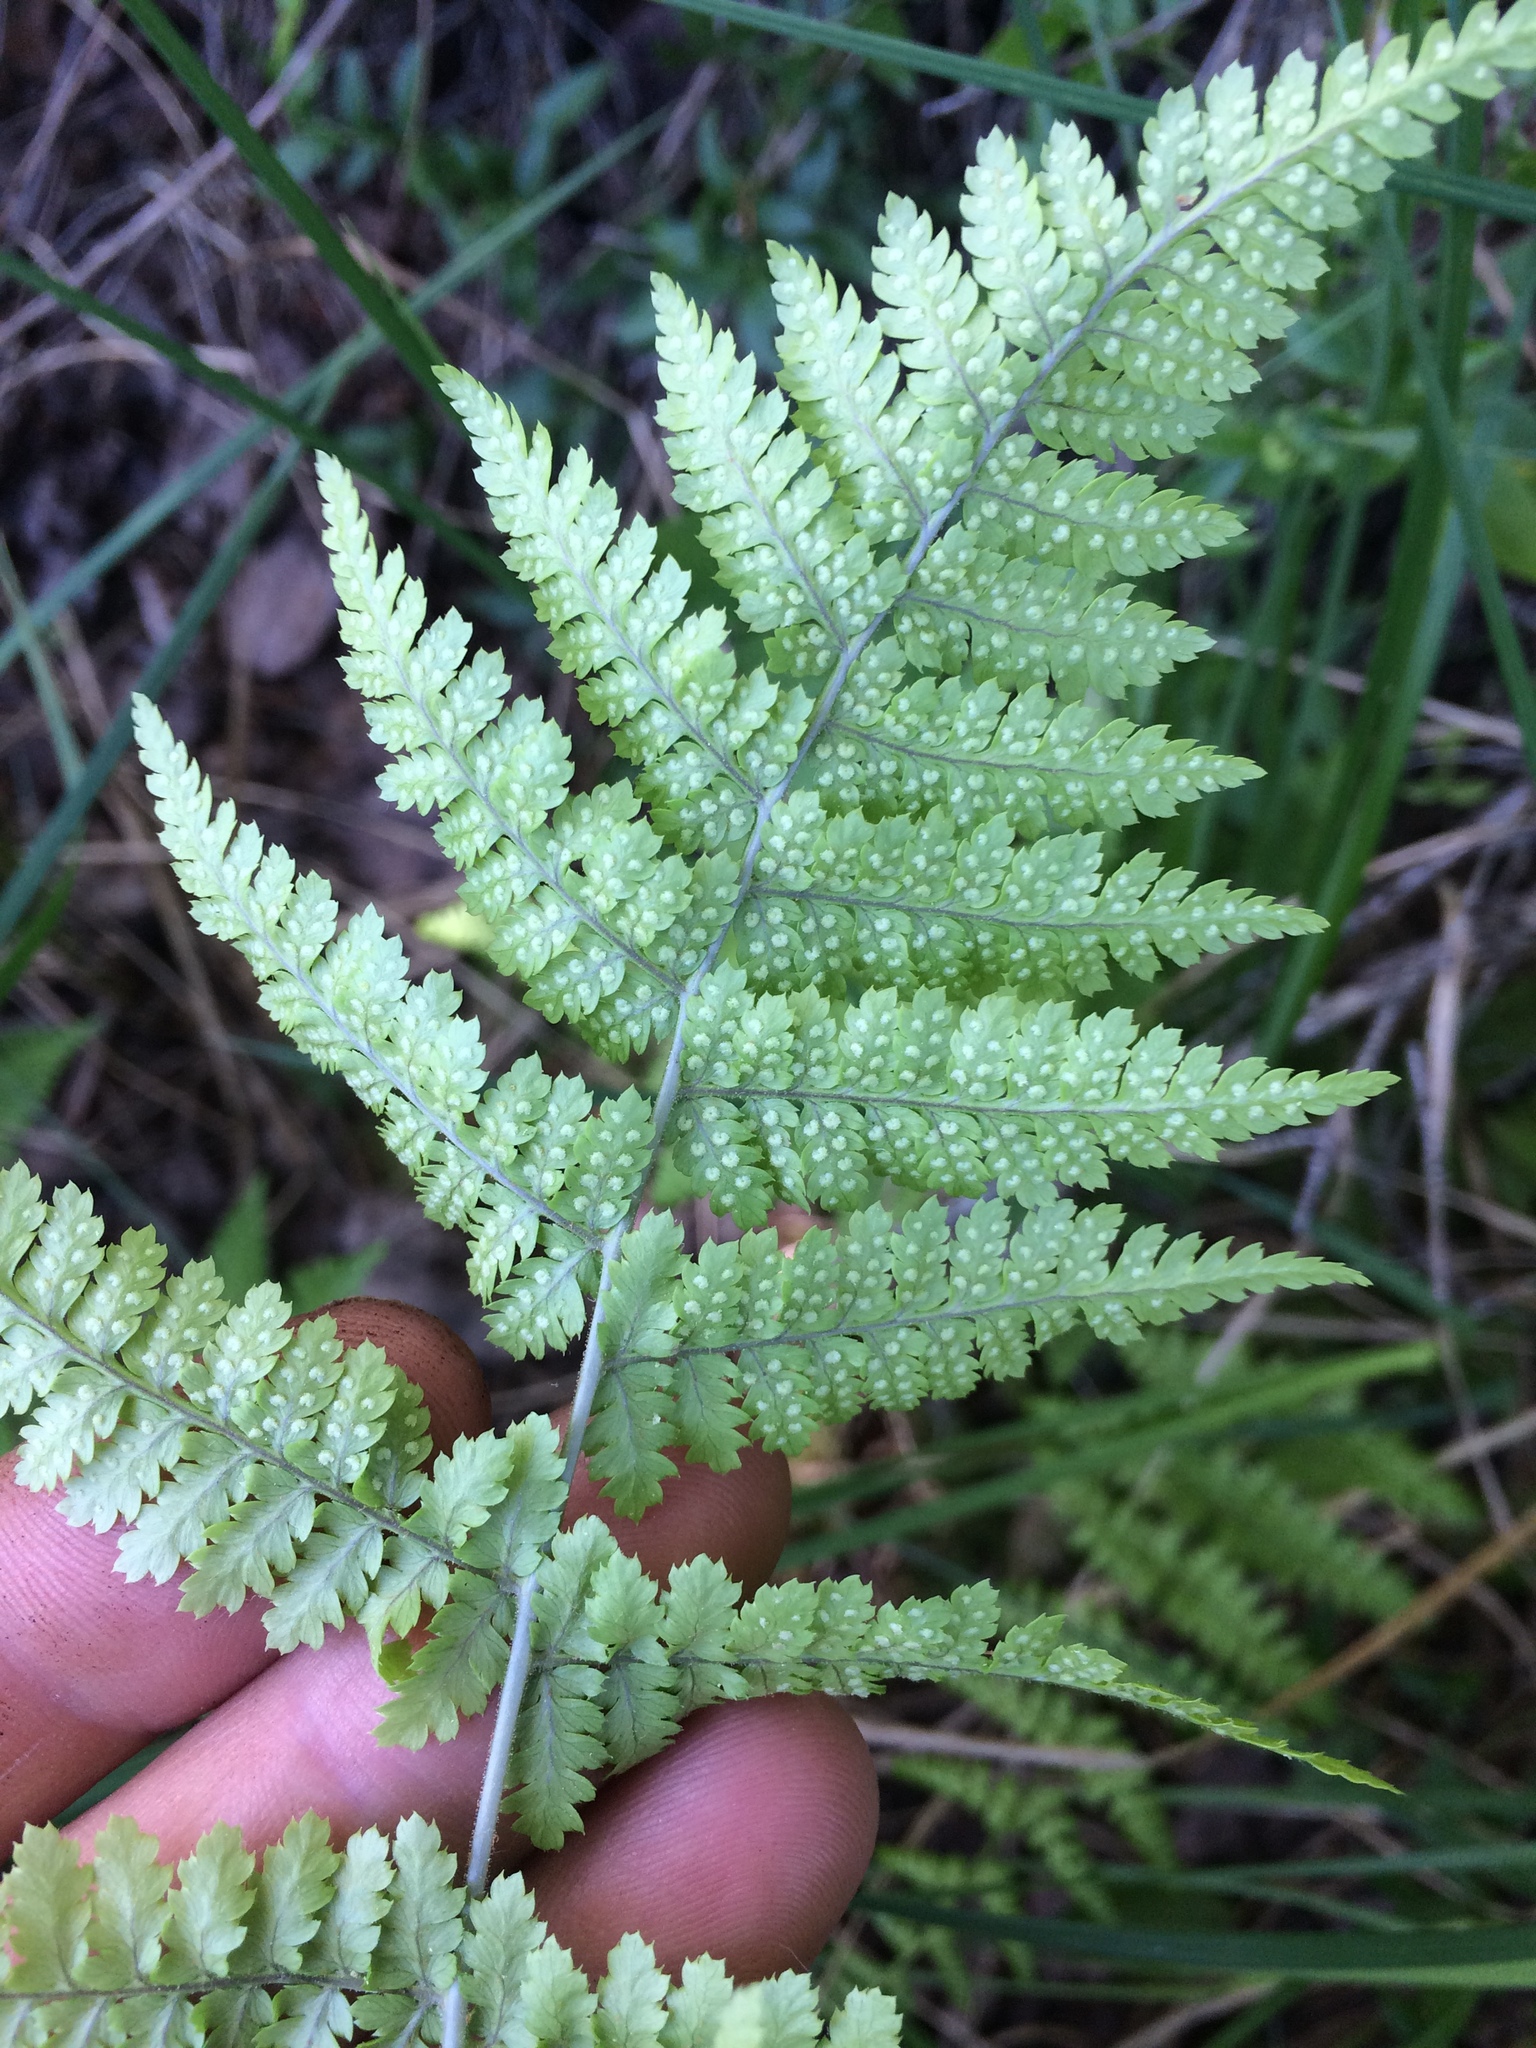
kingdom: Plantae
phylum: Tracheophyta
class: Polypodiopsida
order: Polypodiales
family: Dryopteridaceae
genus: Dryopteris
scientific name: Dryopteris intermedia
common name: Evergreen wood fern
